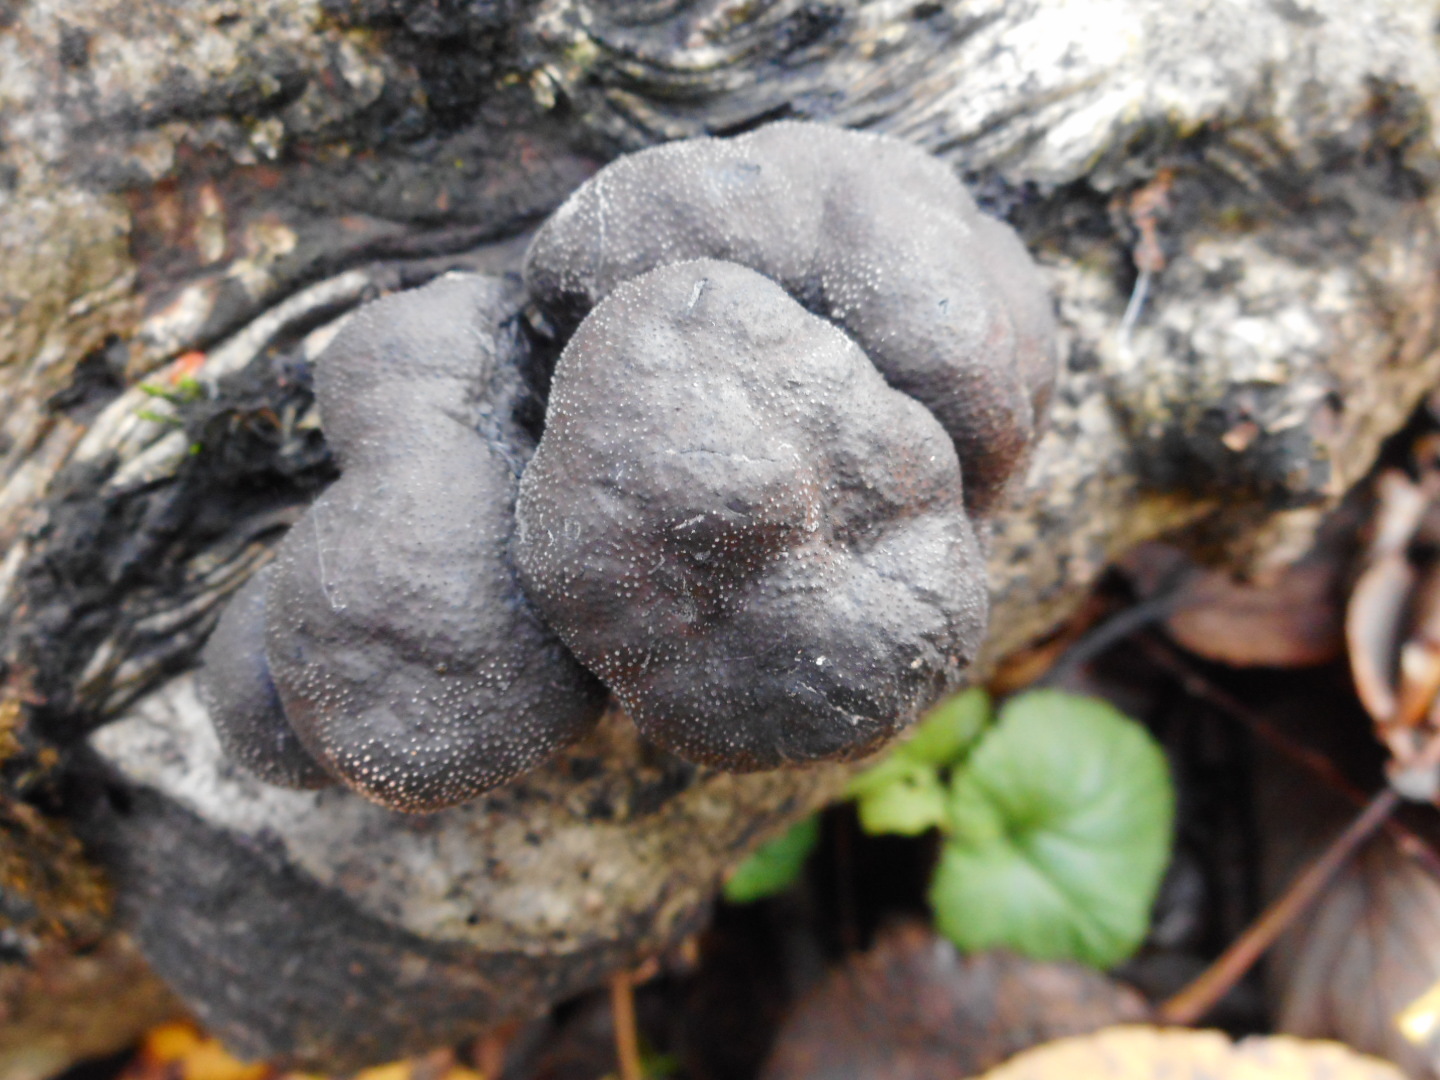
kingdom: Fungi
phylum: Ascomycota
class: Sordariomycetes
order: Xylariales
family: Hypoxylaceae
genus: Daldinia
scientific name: Daldinia petriniae
